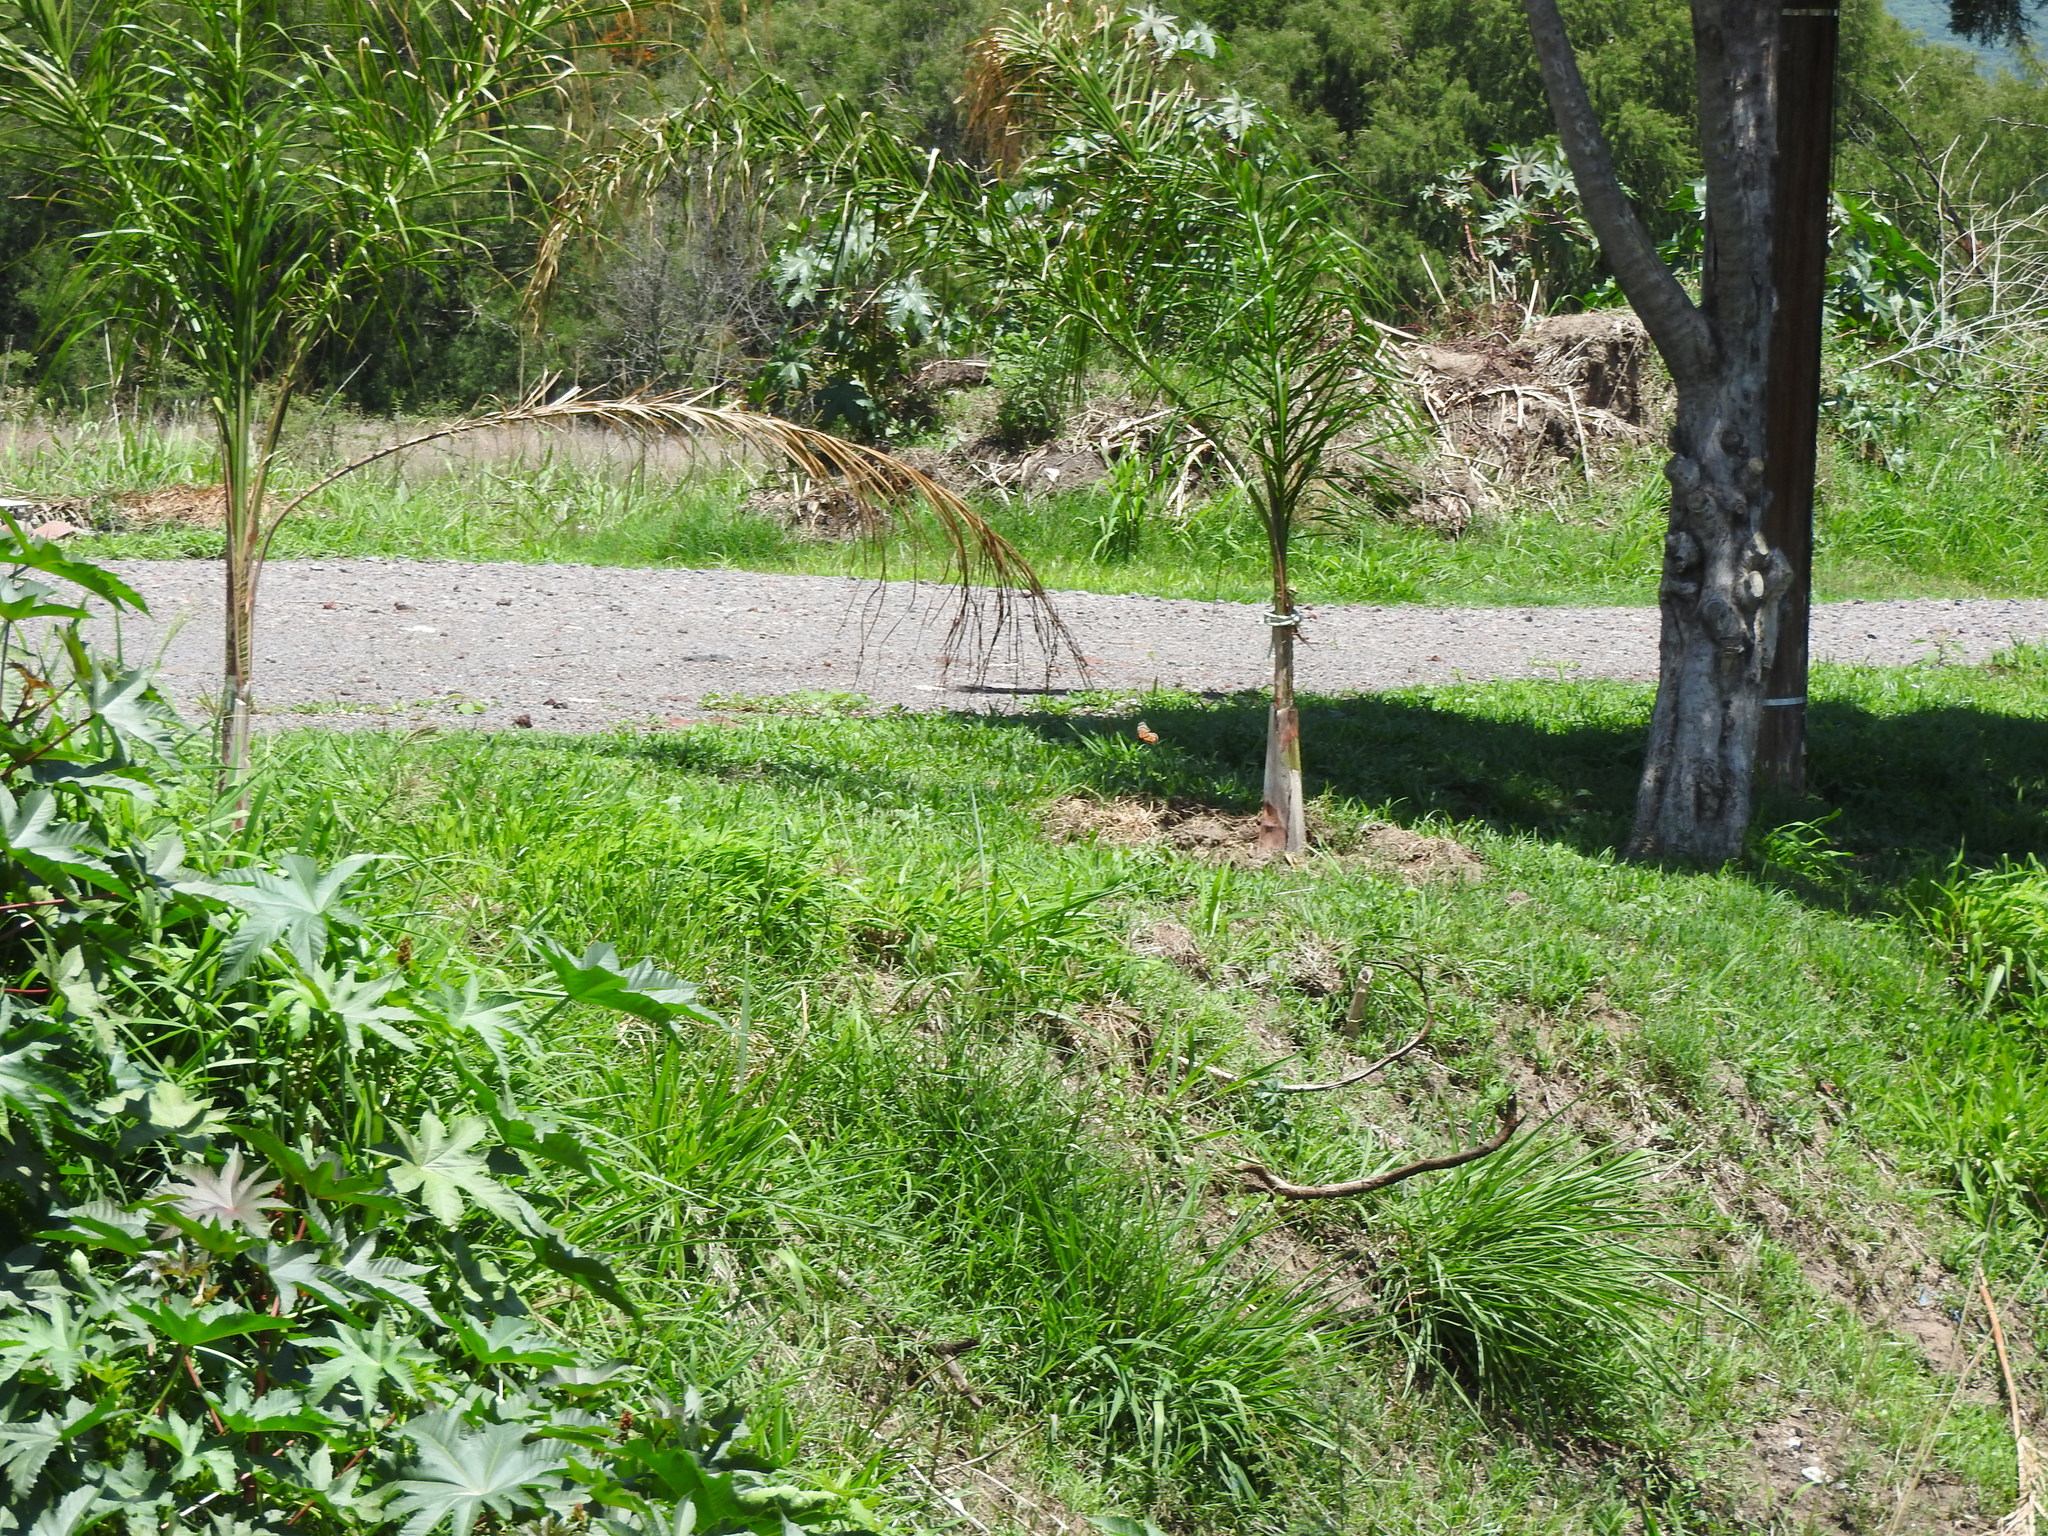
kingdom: Animalia
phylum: Arthropoda
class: Insecta
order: Lepidoptera
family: Nymphalidae
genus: Danaus
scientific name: Danaus plexippus
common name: Monarch
